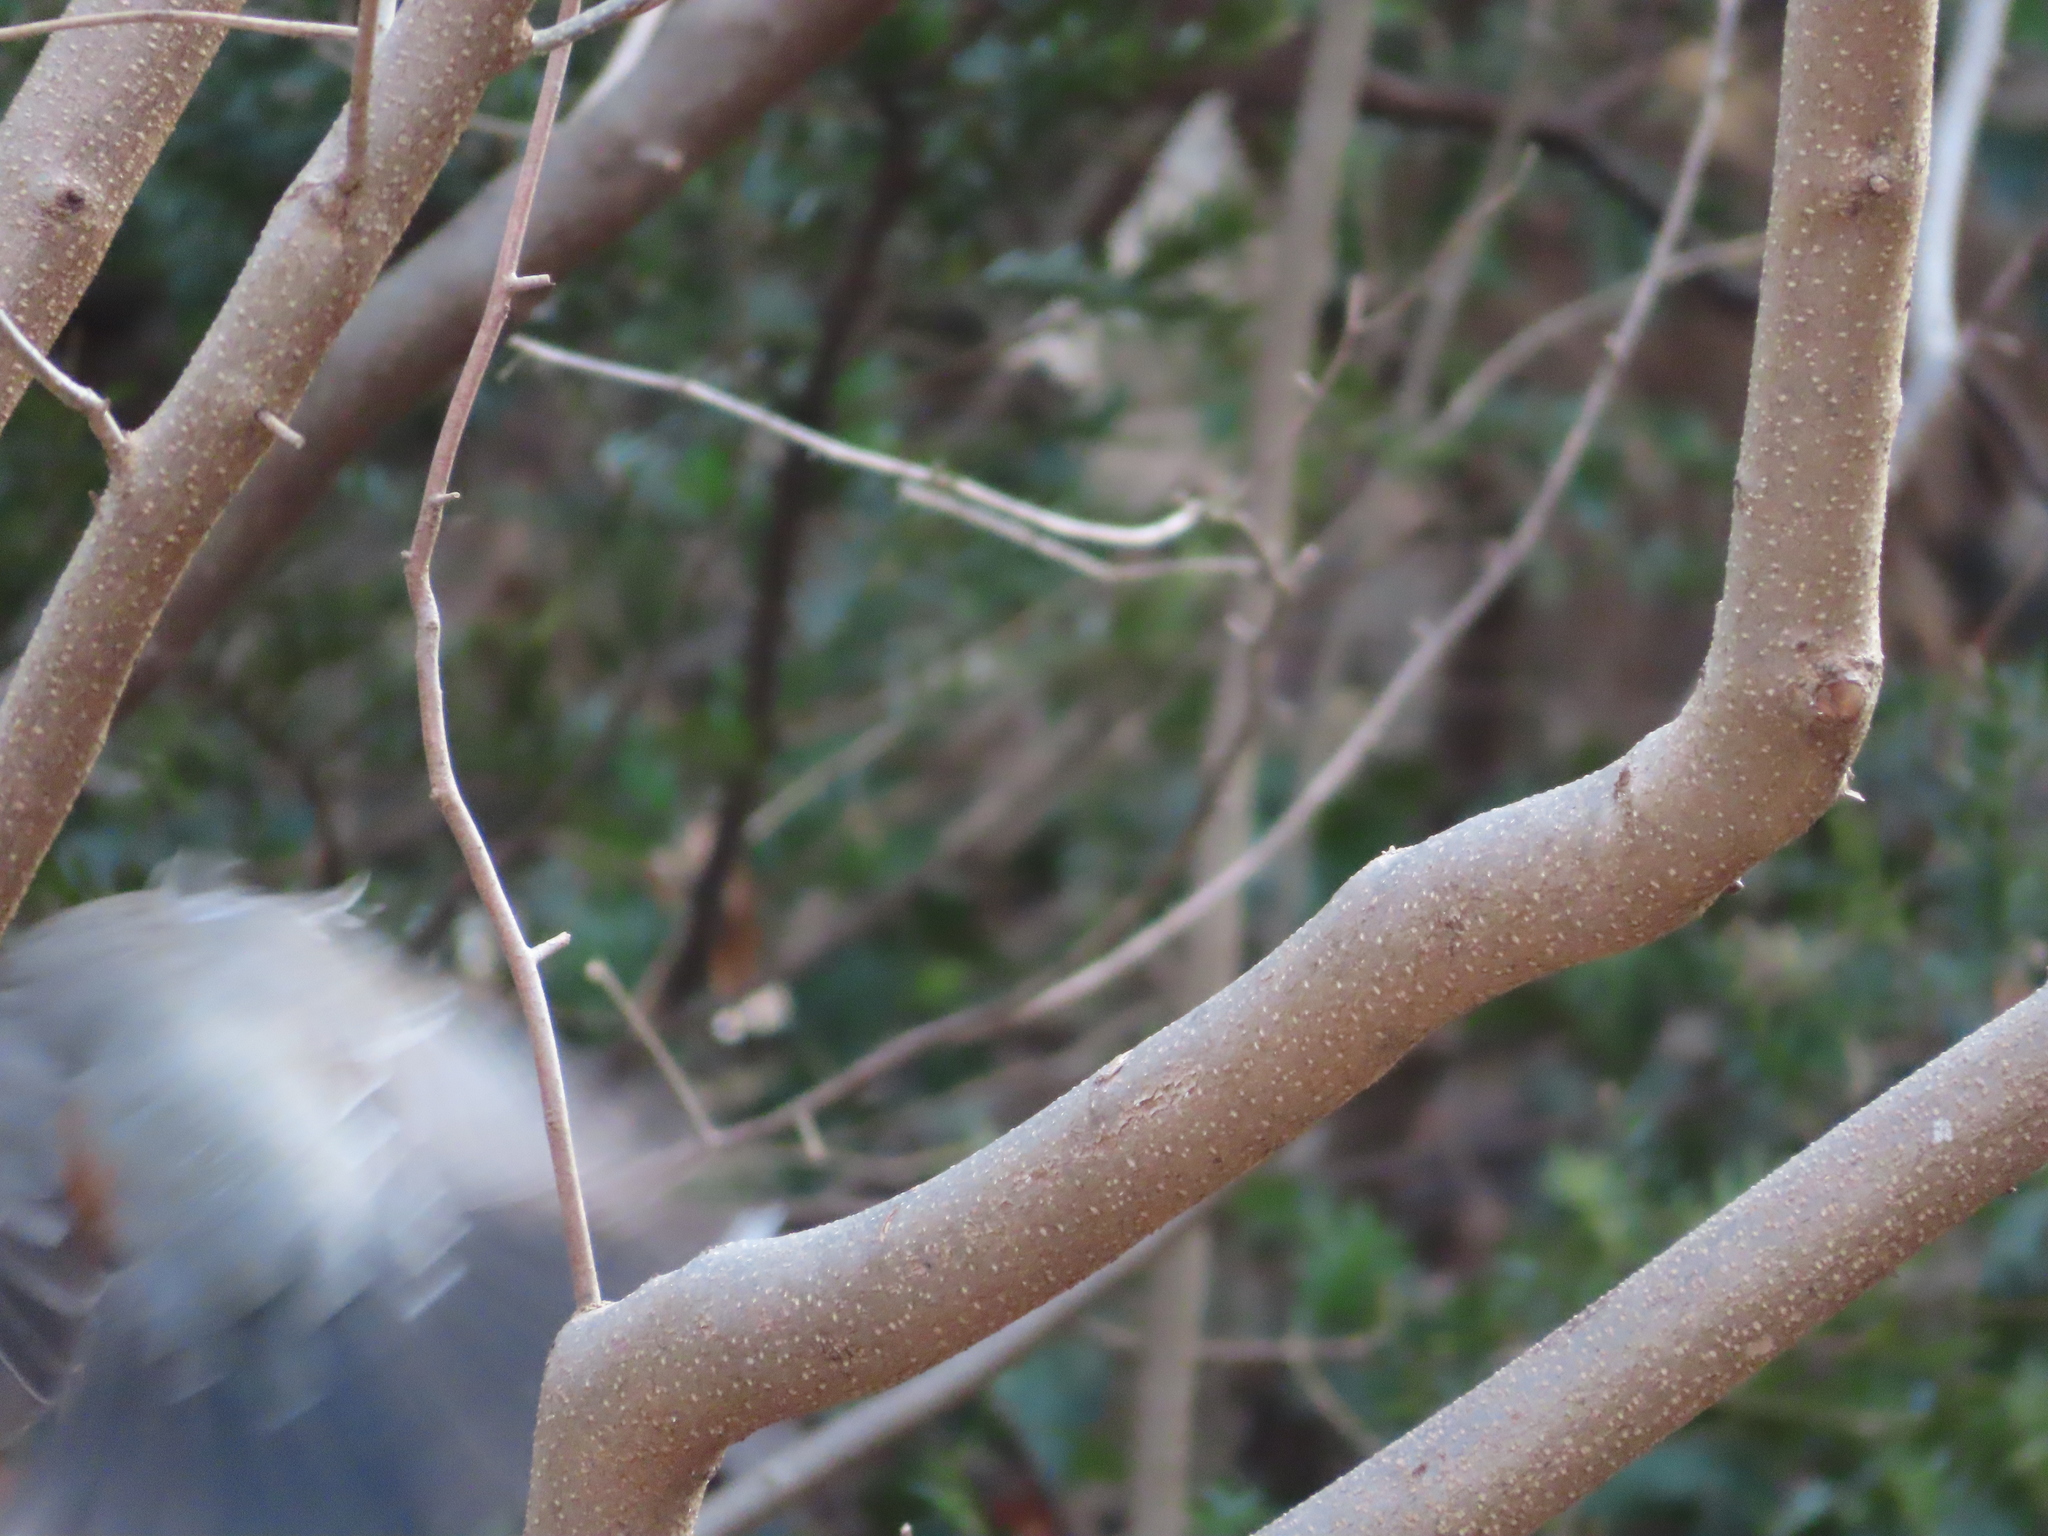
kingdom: Animalia
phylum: Chordata
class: Aves
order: Passeriformes
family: Turdidae
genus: Turdus
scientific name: Turdus migratorius
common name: American robin
